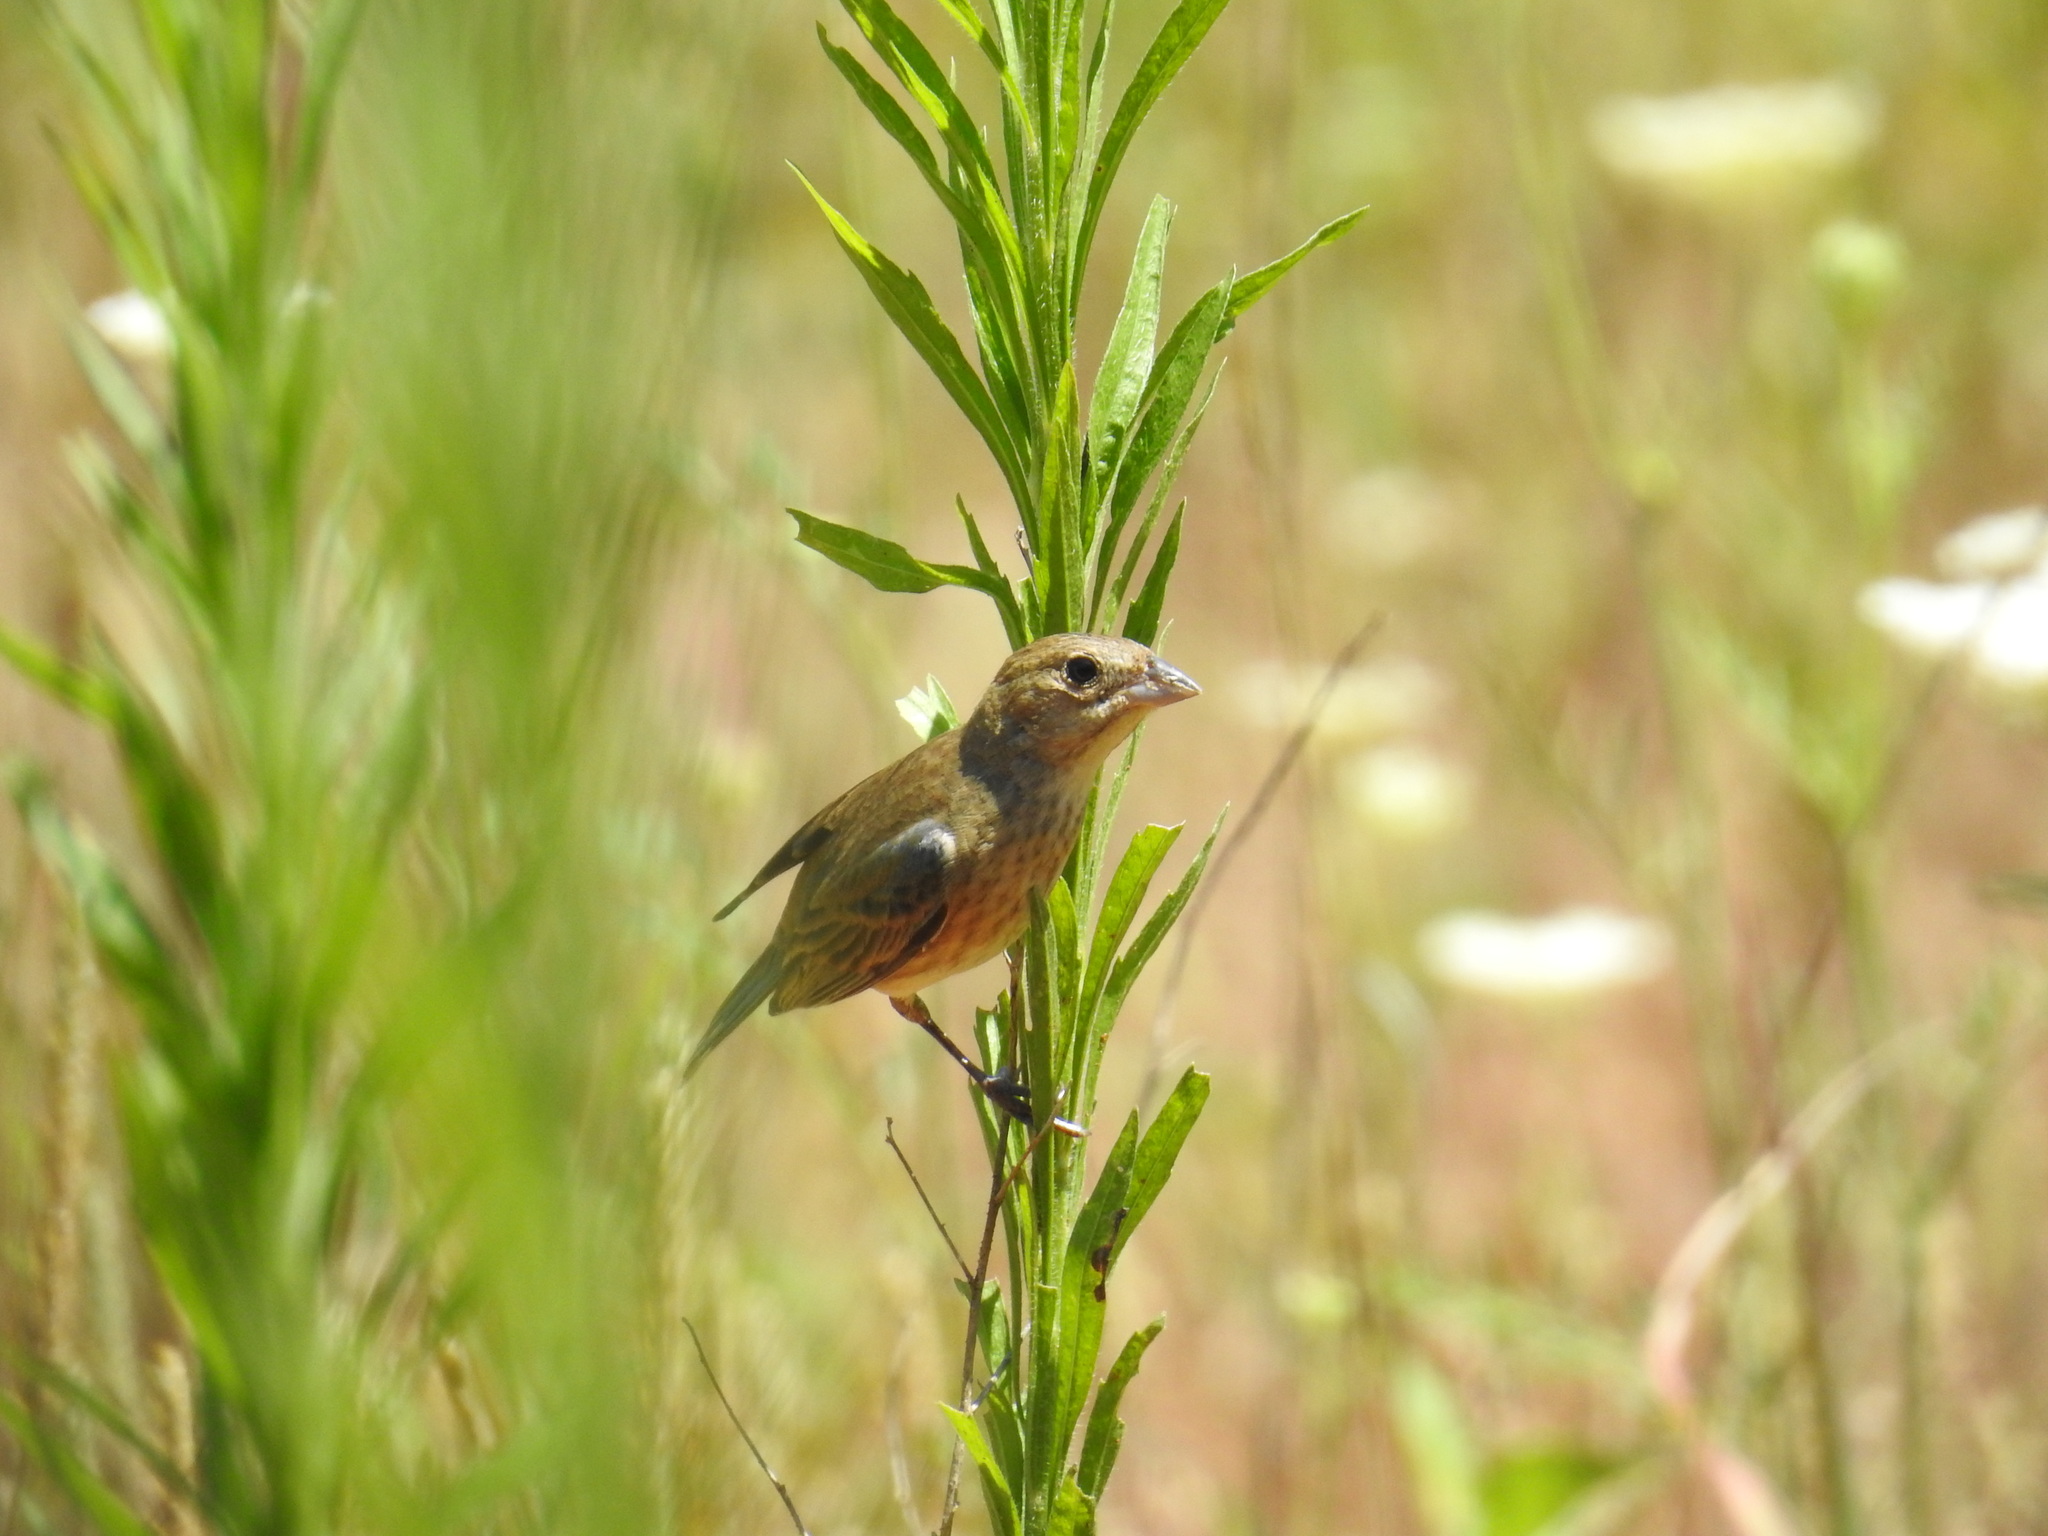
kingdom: Animalia
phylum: Chordata
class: Aves
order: Passeriformes
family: Cardinalidae
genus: Passerina
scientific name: Passerina cyanea
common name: Indigo bunting
